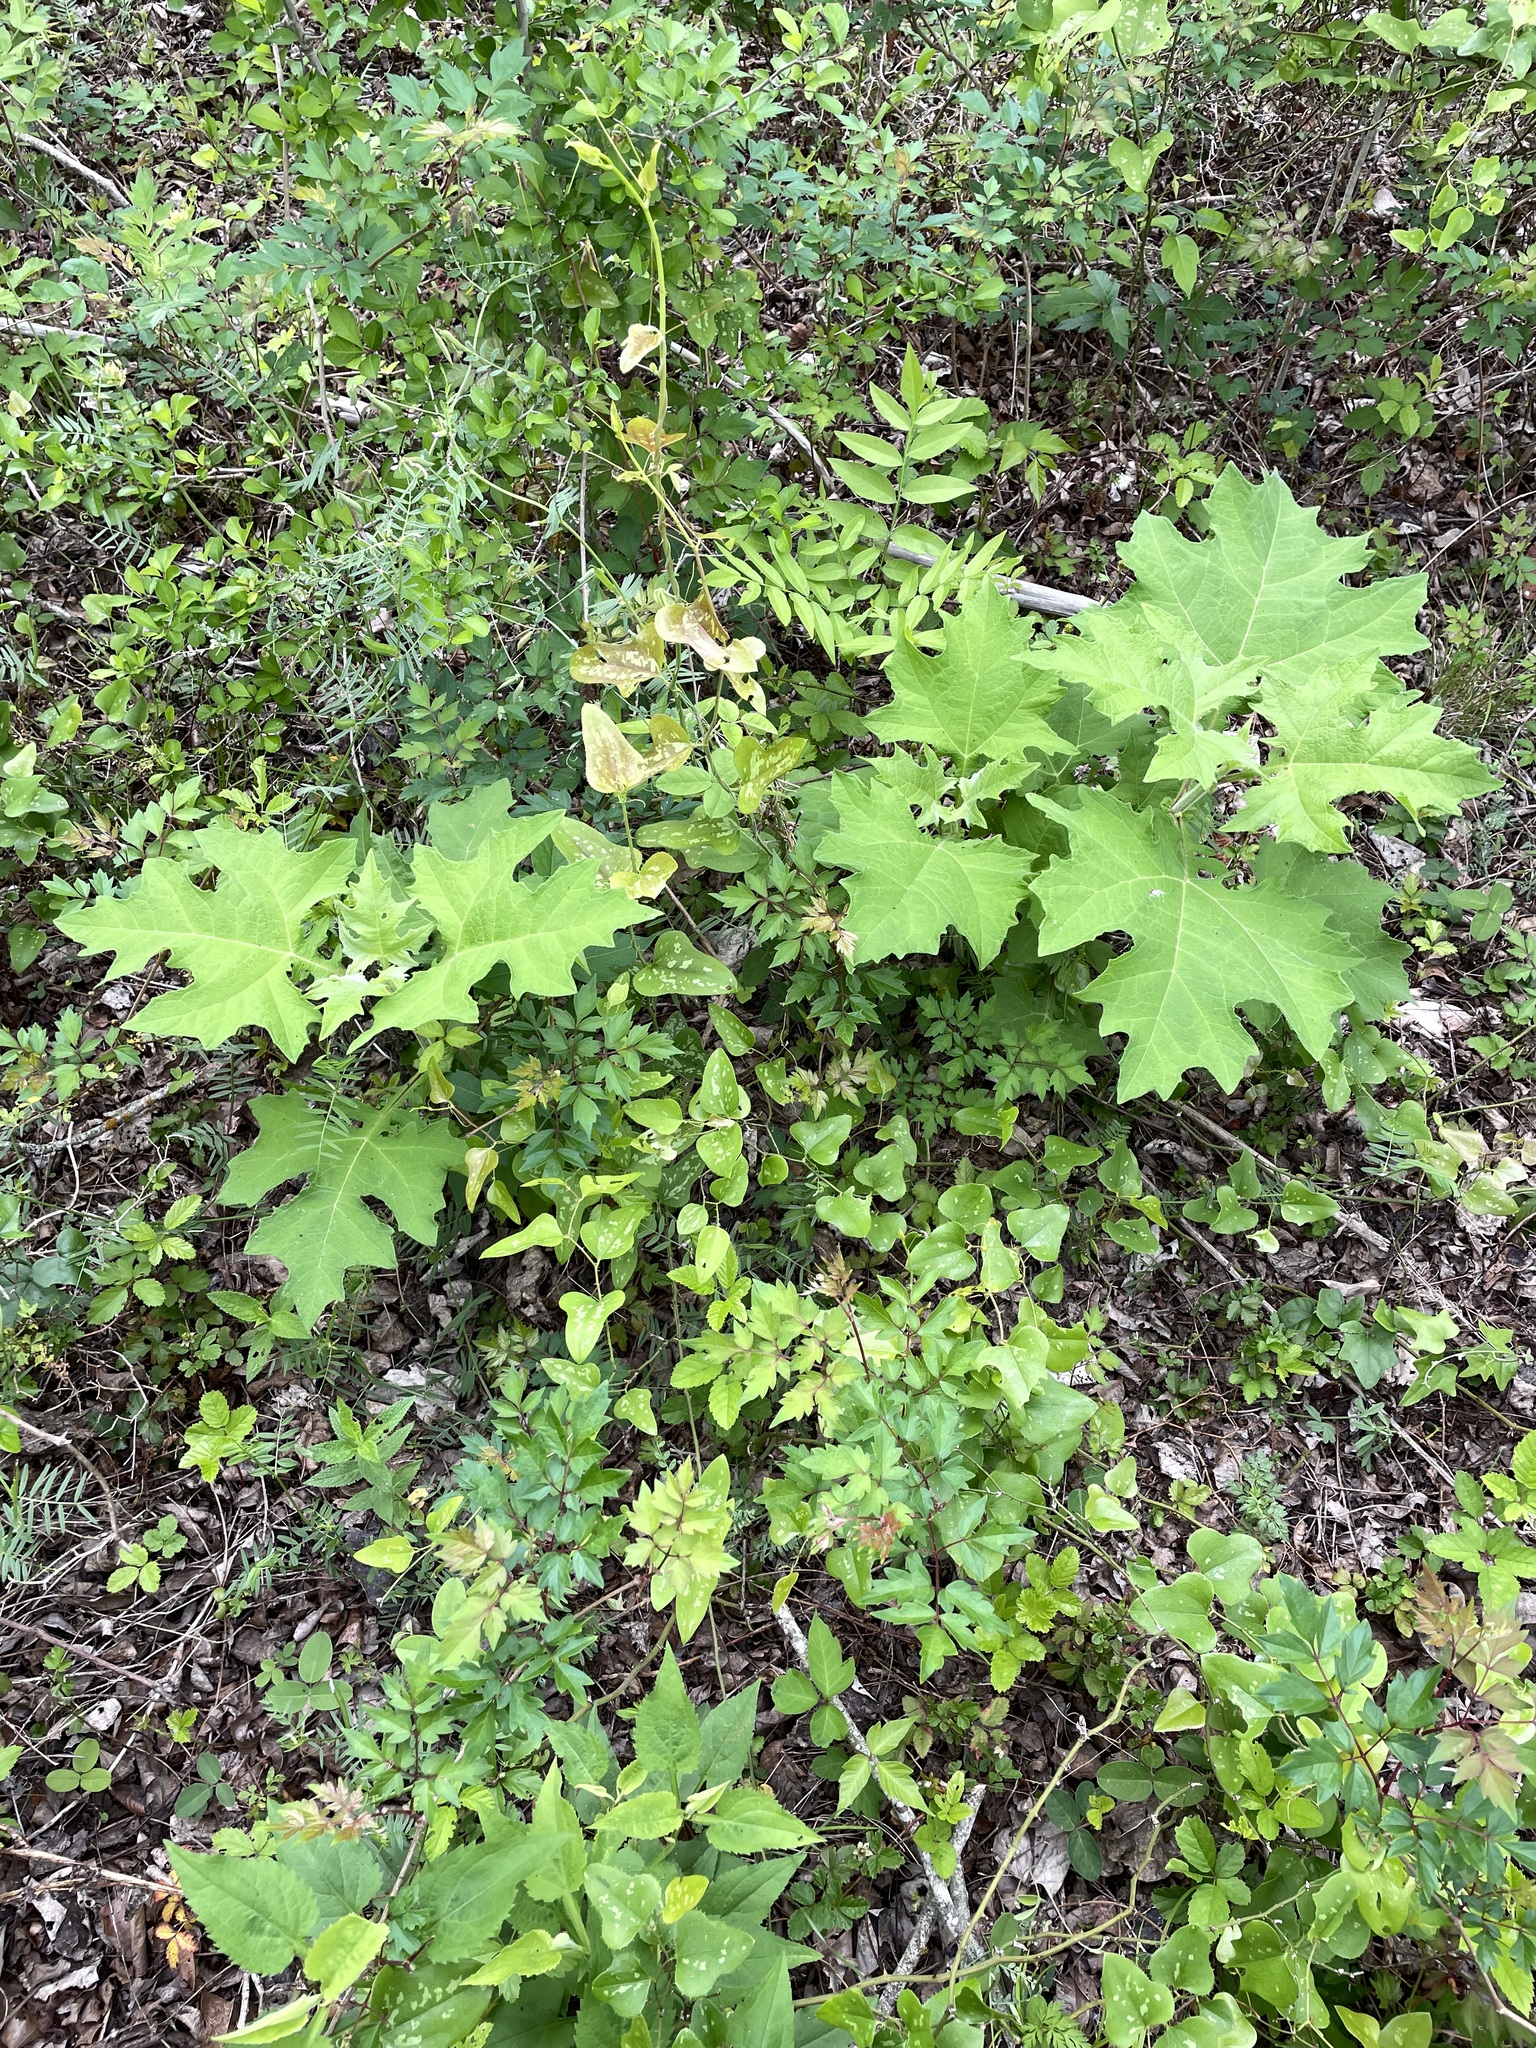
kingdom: Plantae
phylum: Tracheophyta
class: Magnoliopsida
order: Asterales
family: Asteraceae
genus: Smallanthus
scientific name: Smallanthus uvedalia
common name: Bear's-foot
